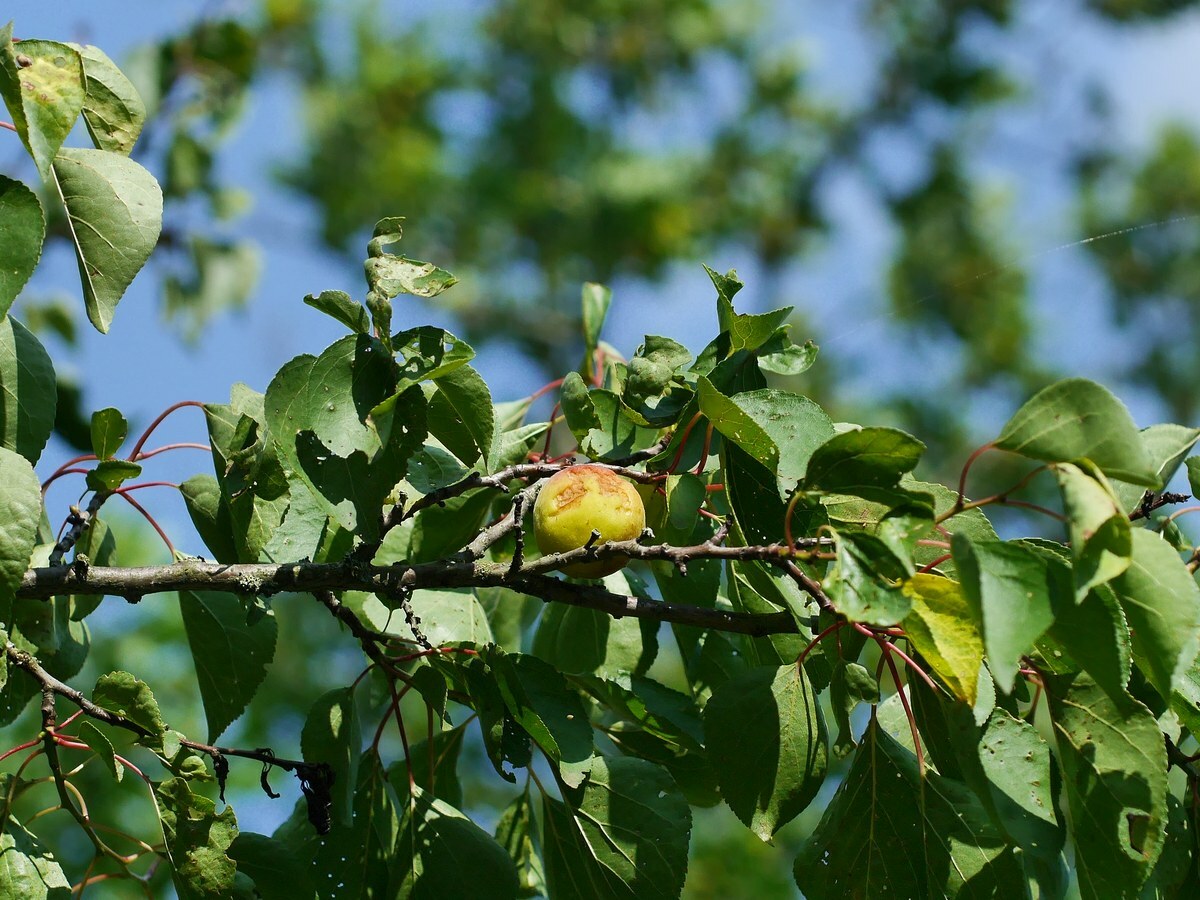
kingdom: Plantae
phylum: Tracheophyta
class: Magnoliopsida
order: Rosales
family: Rosaceae
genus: Prunus
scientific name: Prunus armeniaca
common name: Apricot
